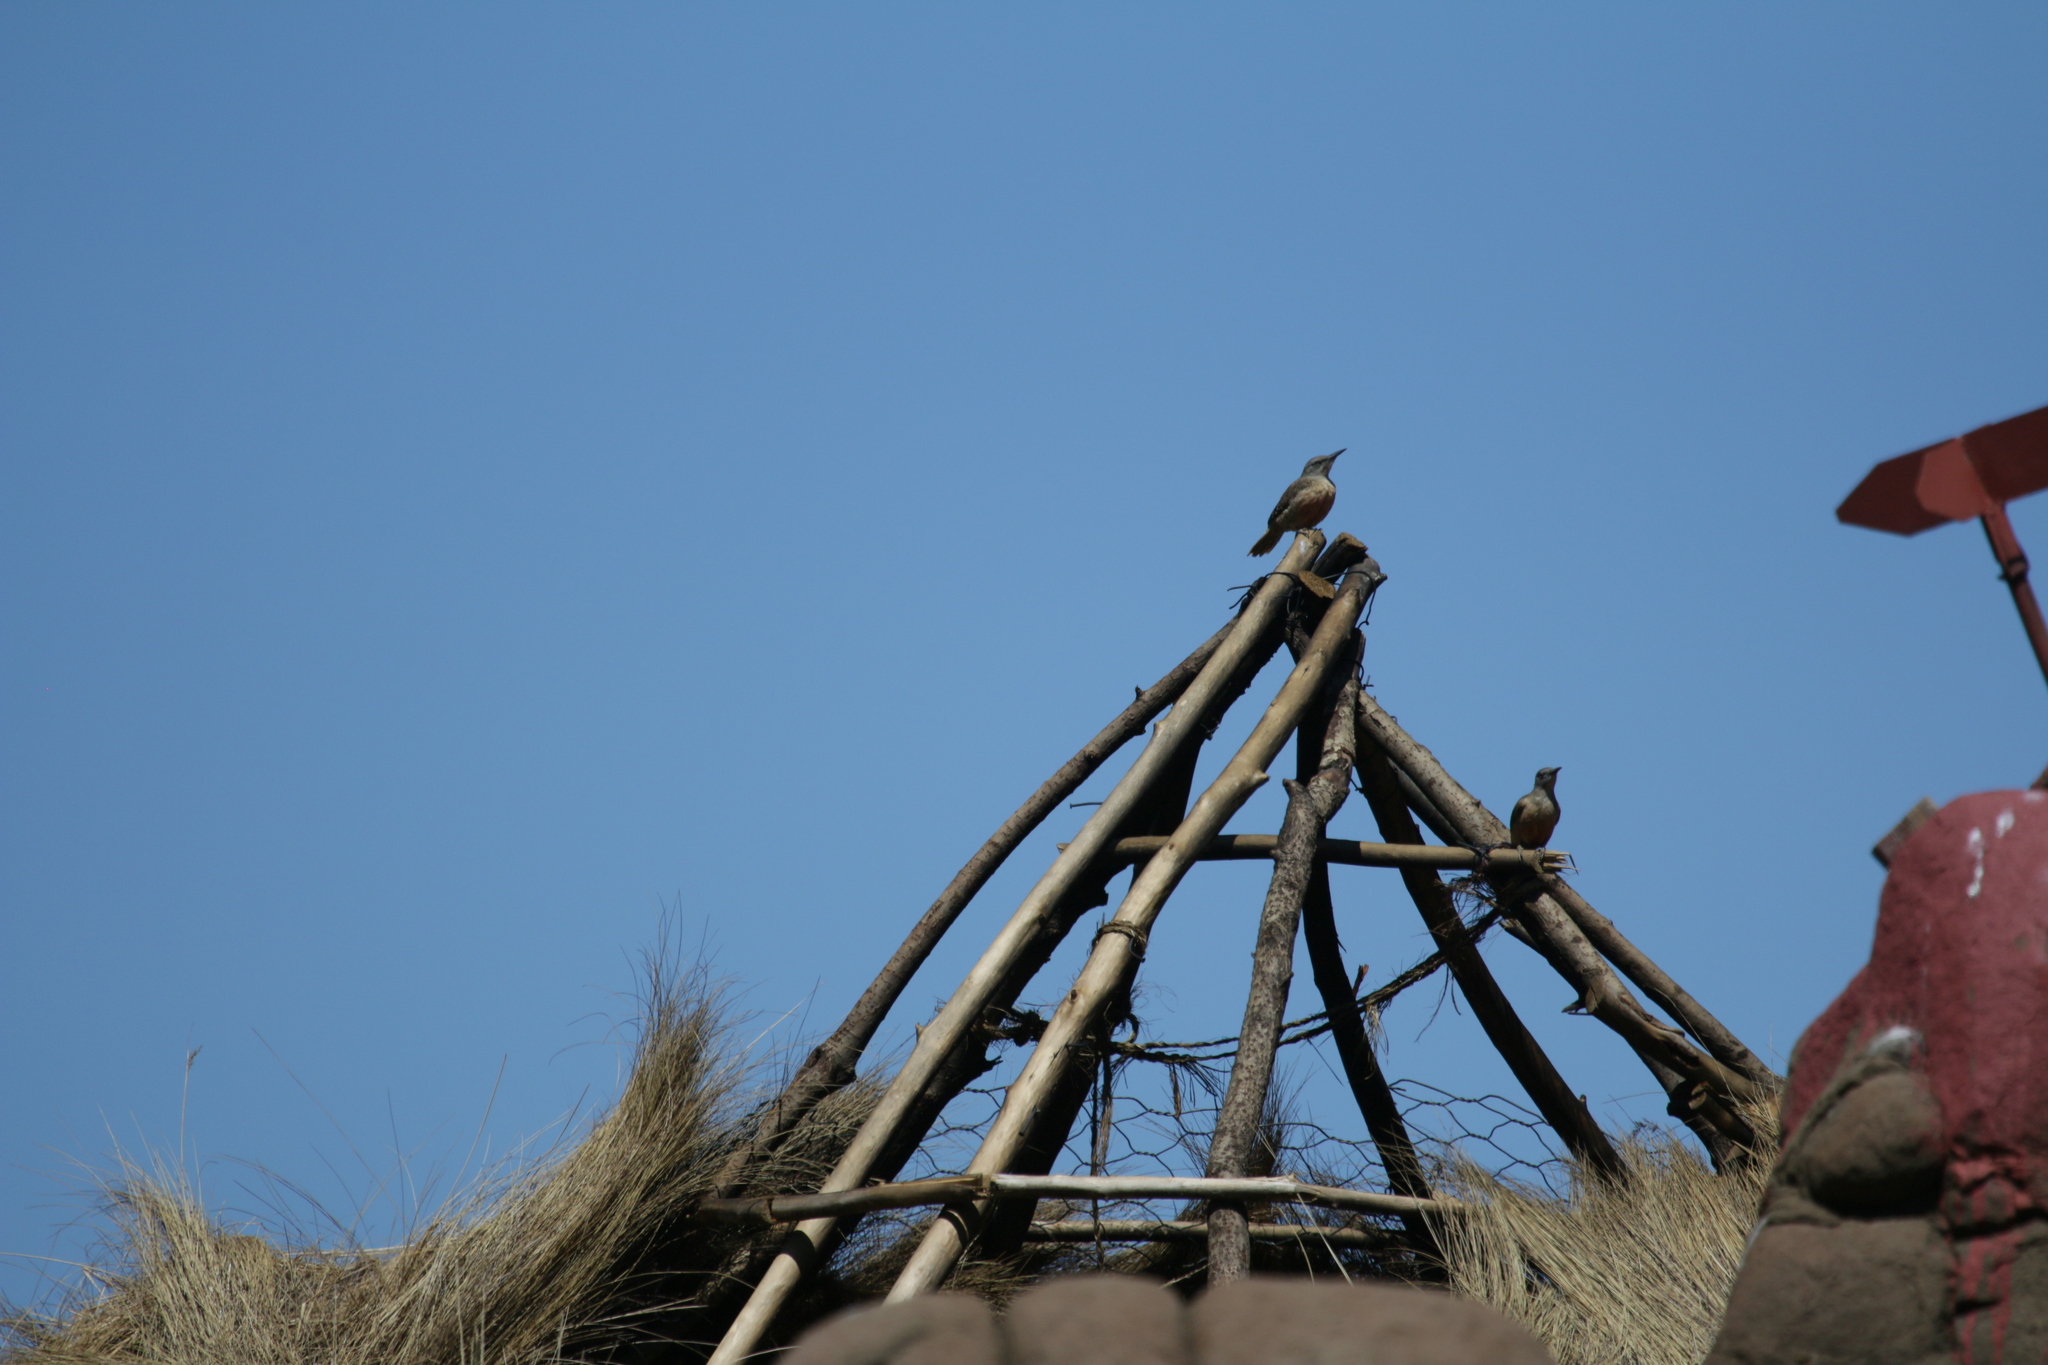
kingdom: Animalia
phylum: Chordata
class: Aves
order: Piciformes
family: Picidae
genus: Geocolaptes
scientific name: Geocolaptes olivaceus
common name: Ground woodpecker
